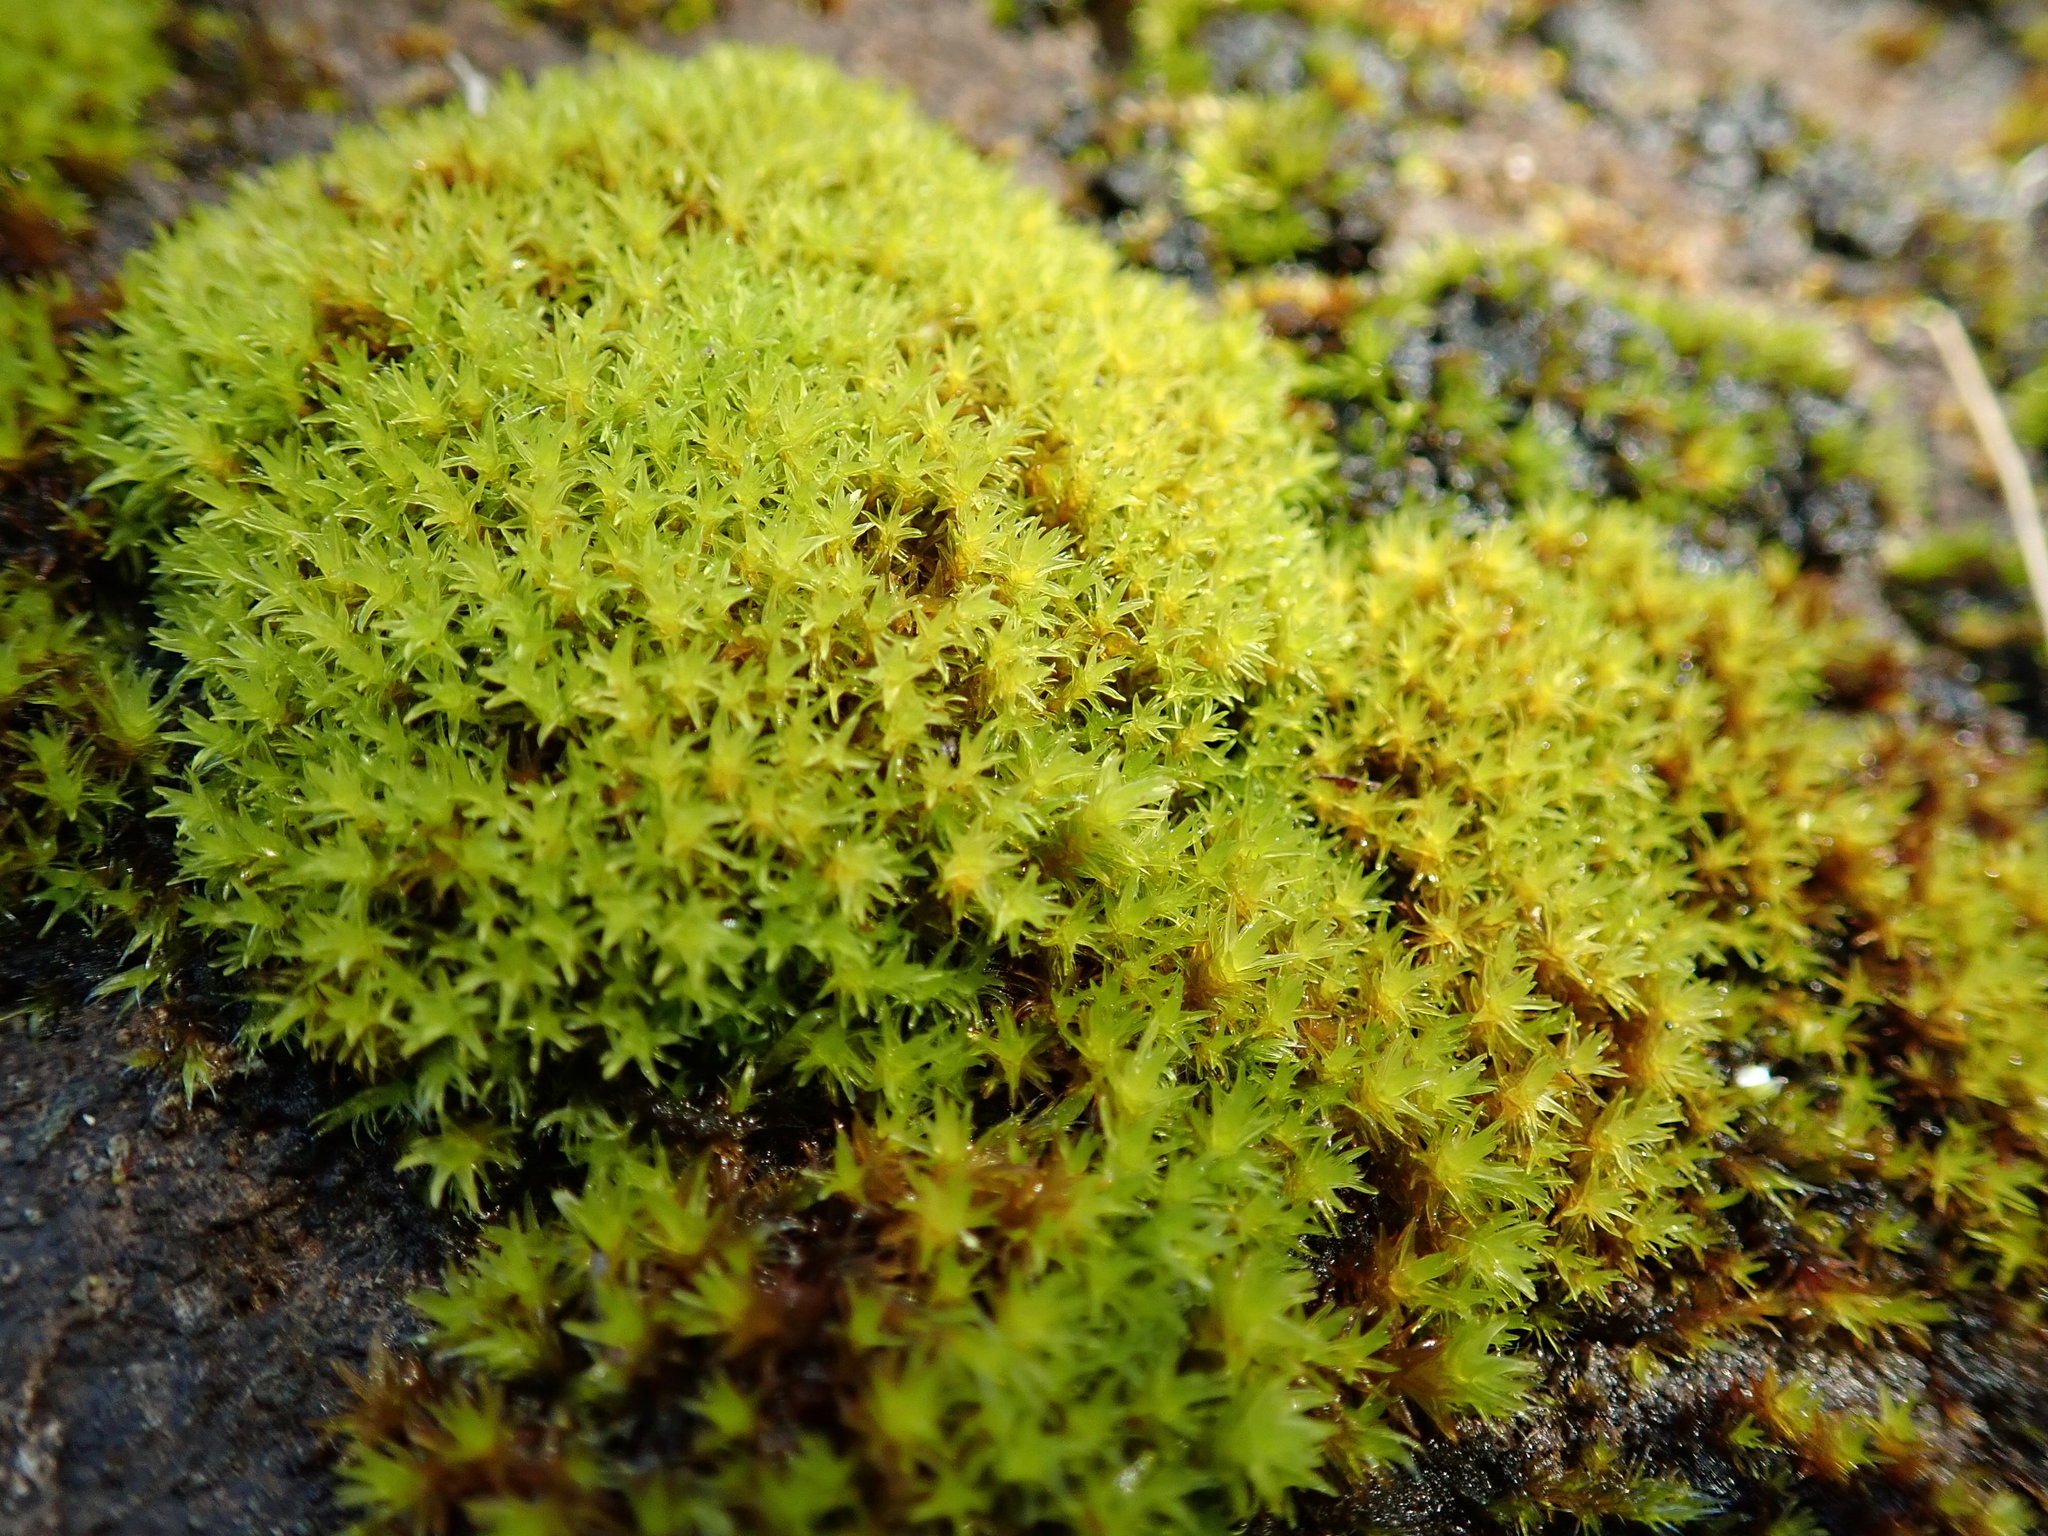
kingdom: Plantae
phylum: Bryophyta
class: Bryopsida
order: Dicranales
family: Aongstroemiaceae
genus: Dichodontium
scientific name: Dichodontium pellucidum
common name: Transparent fork moss
